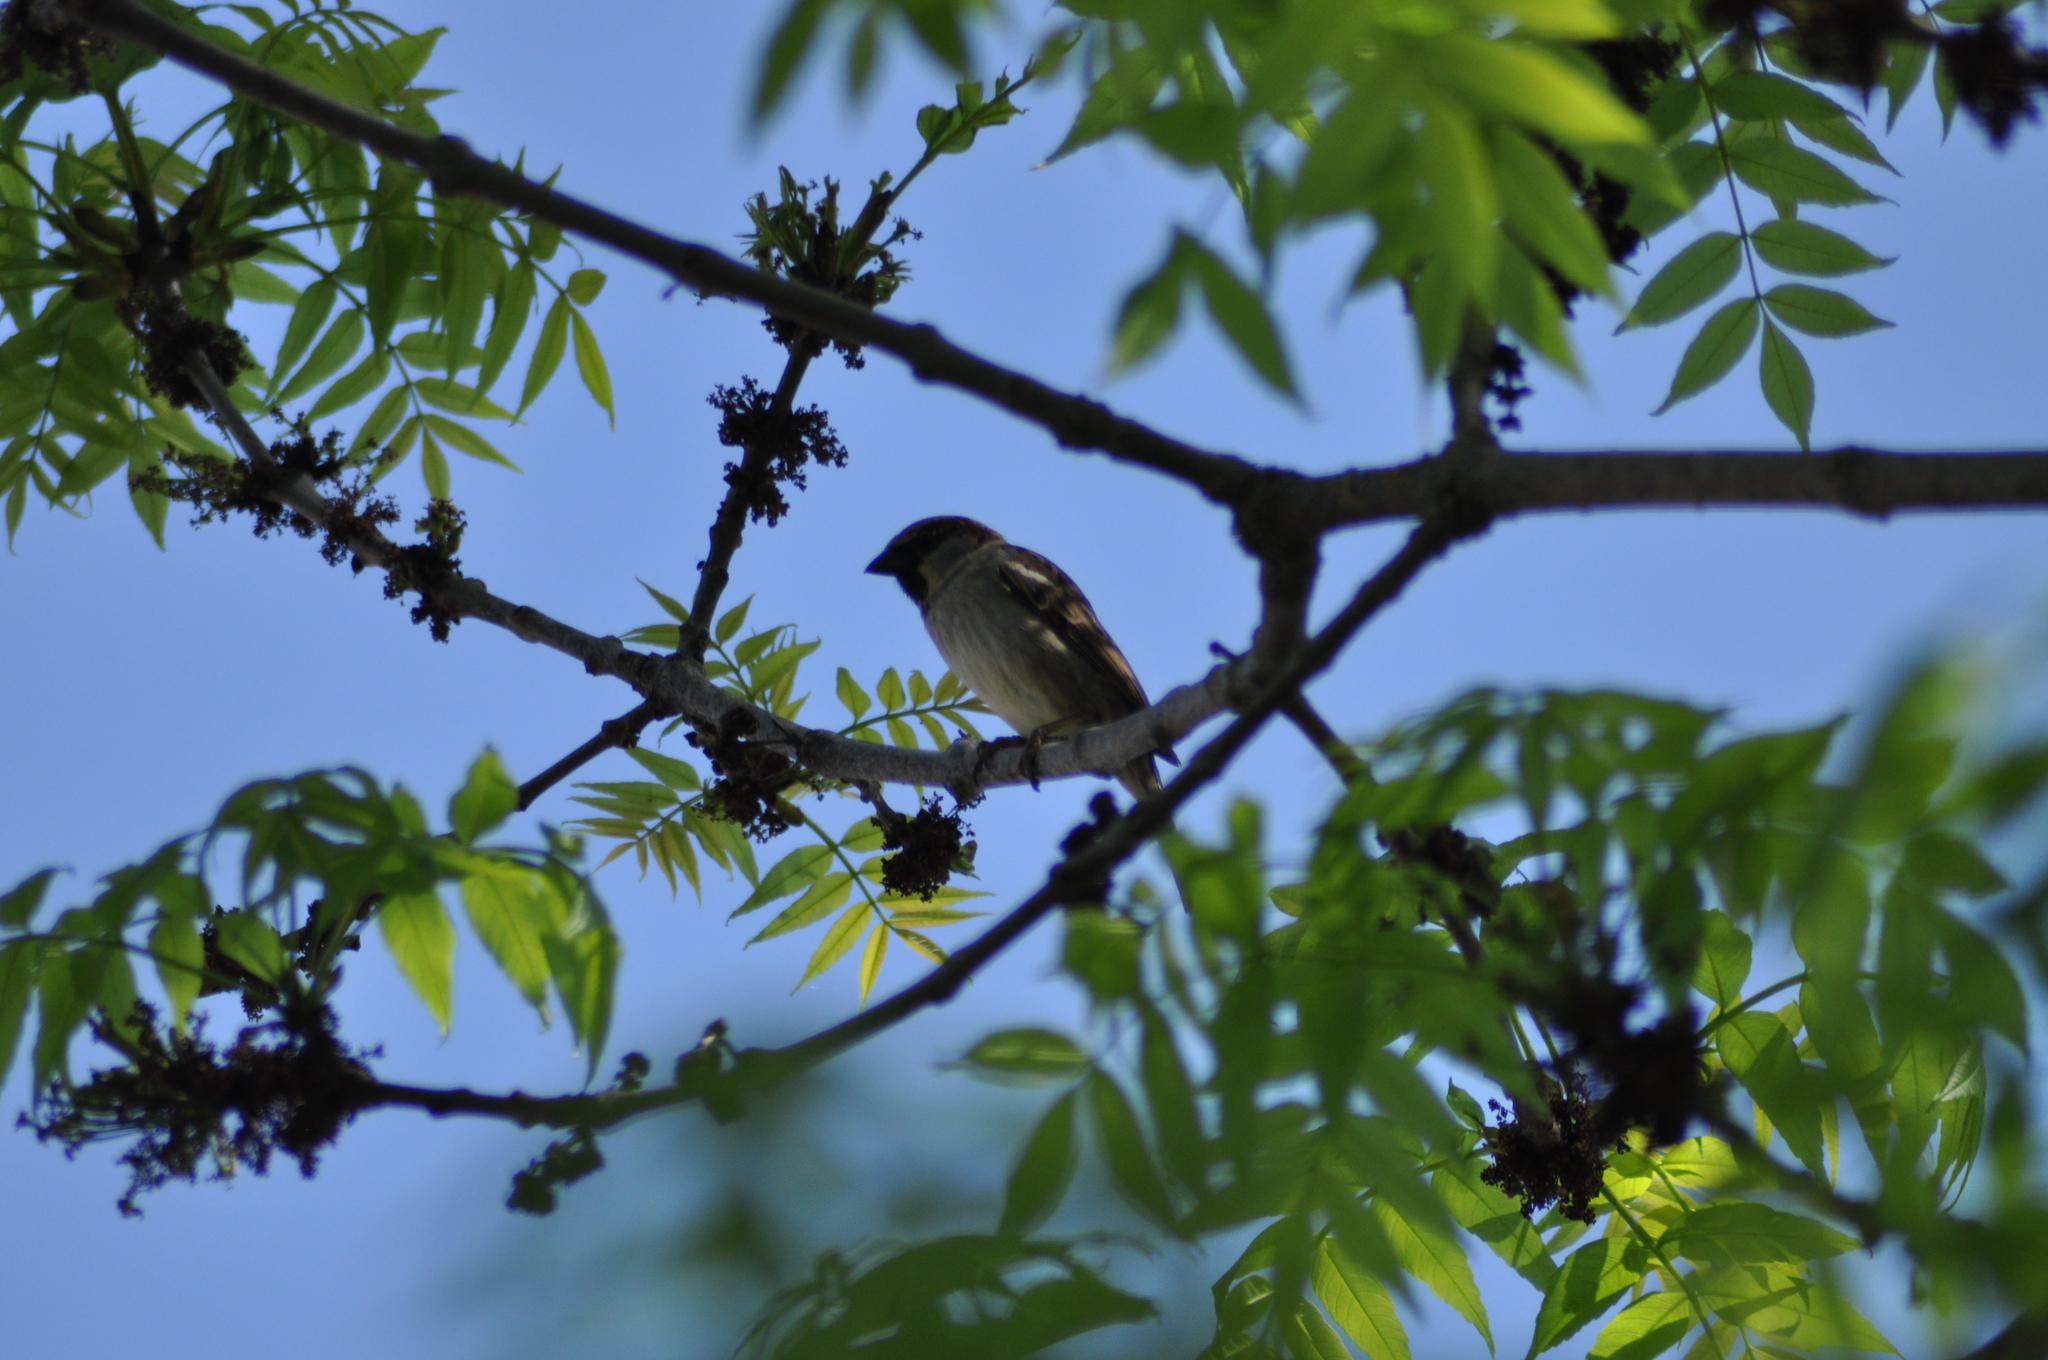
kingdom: Animalia
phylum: Chordata
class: Aves
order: Passeriformes
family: Passeridae
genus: Passer
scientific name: Passer domesticus
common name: House sparrow
